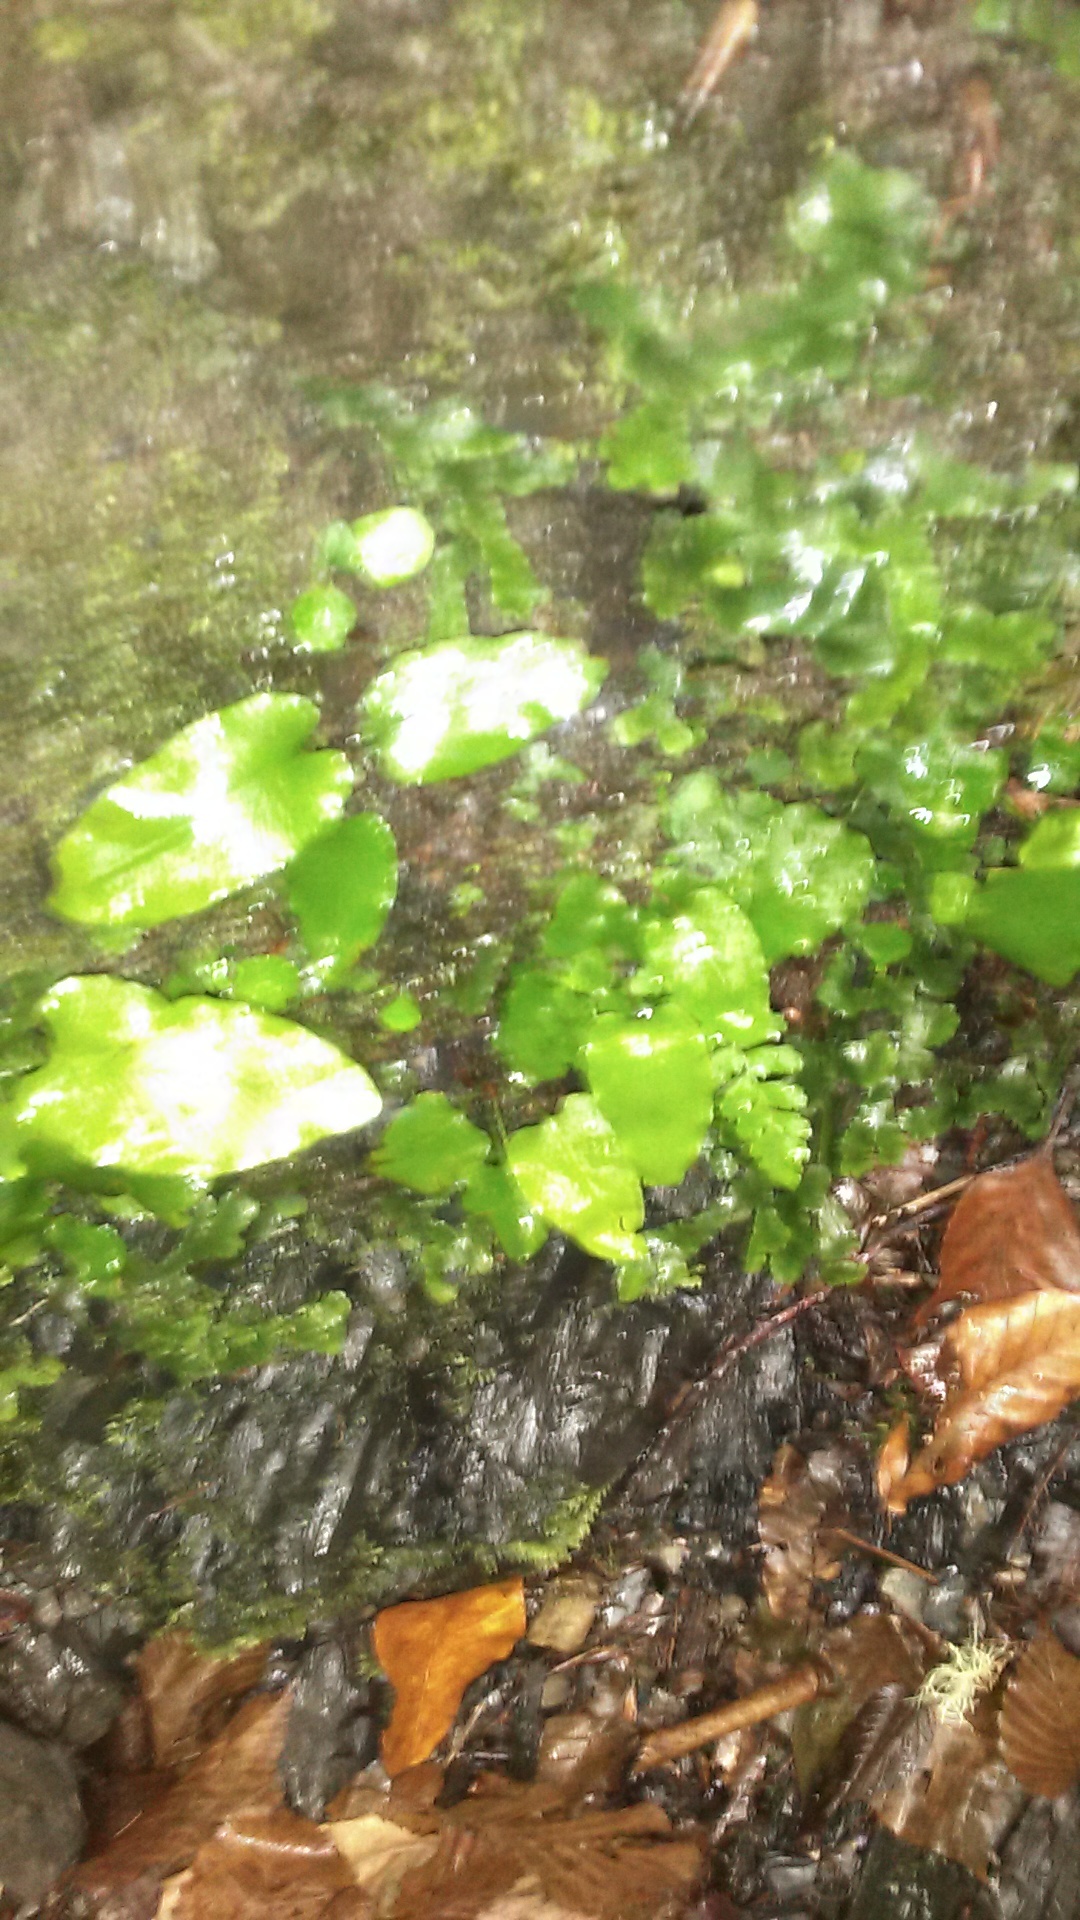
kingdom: Plantae
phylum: Tracheophyta
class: Polypodiopsida
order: Polypodiales
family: Aspleniaceae
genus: Asplenium
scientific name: Asplenium scolopendrium
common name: Hart's-tongue fern
